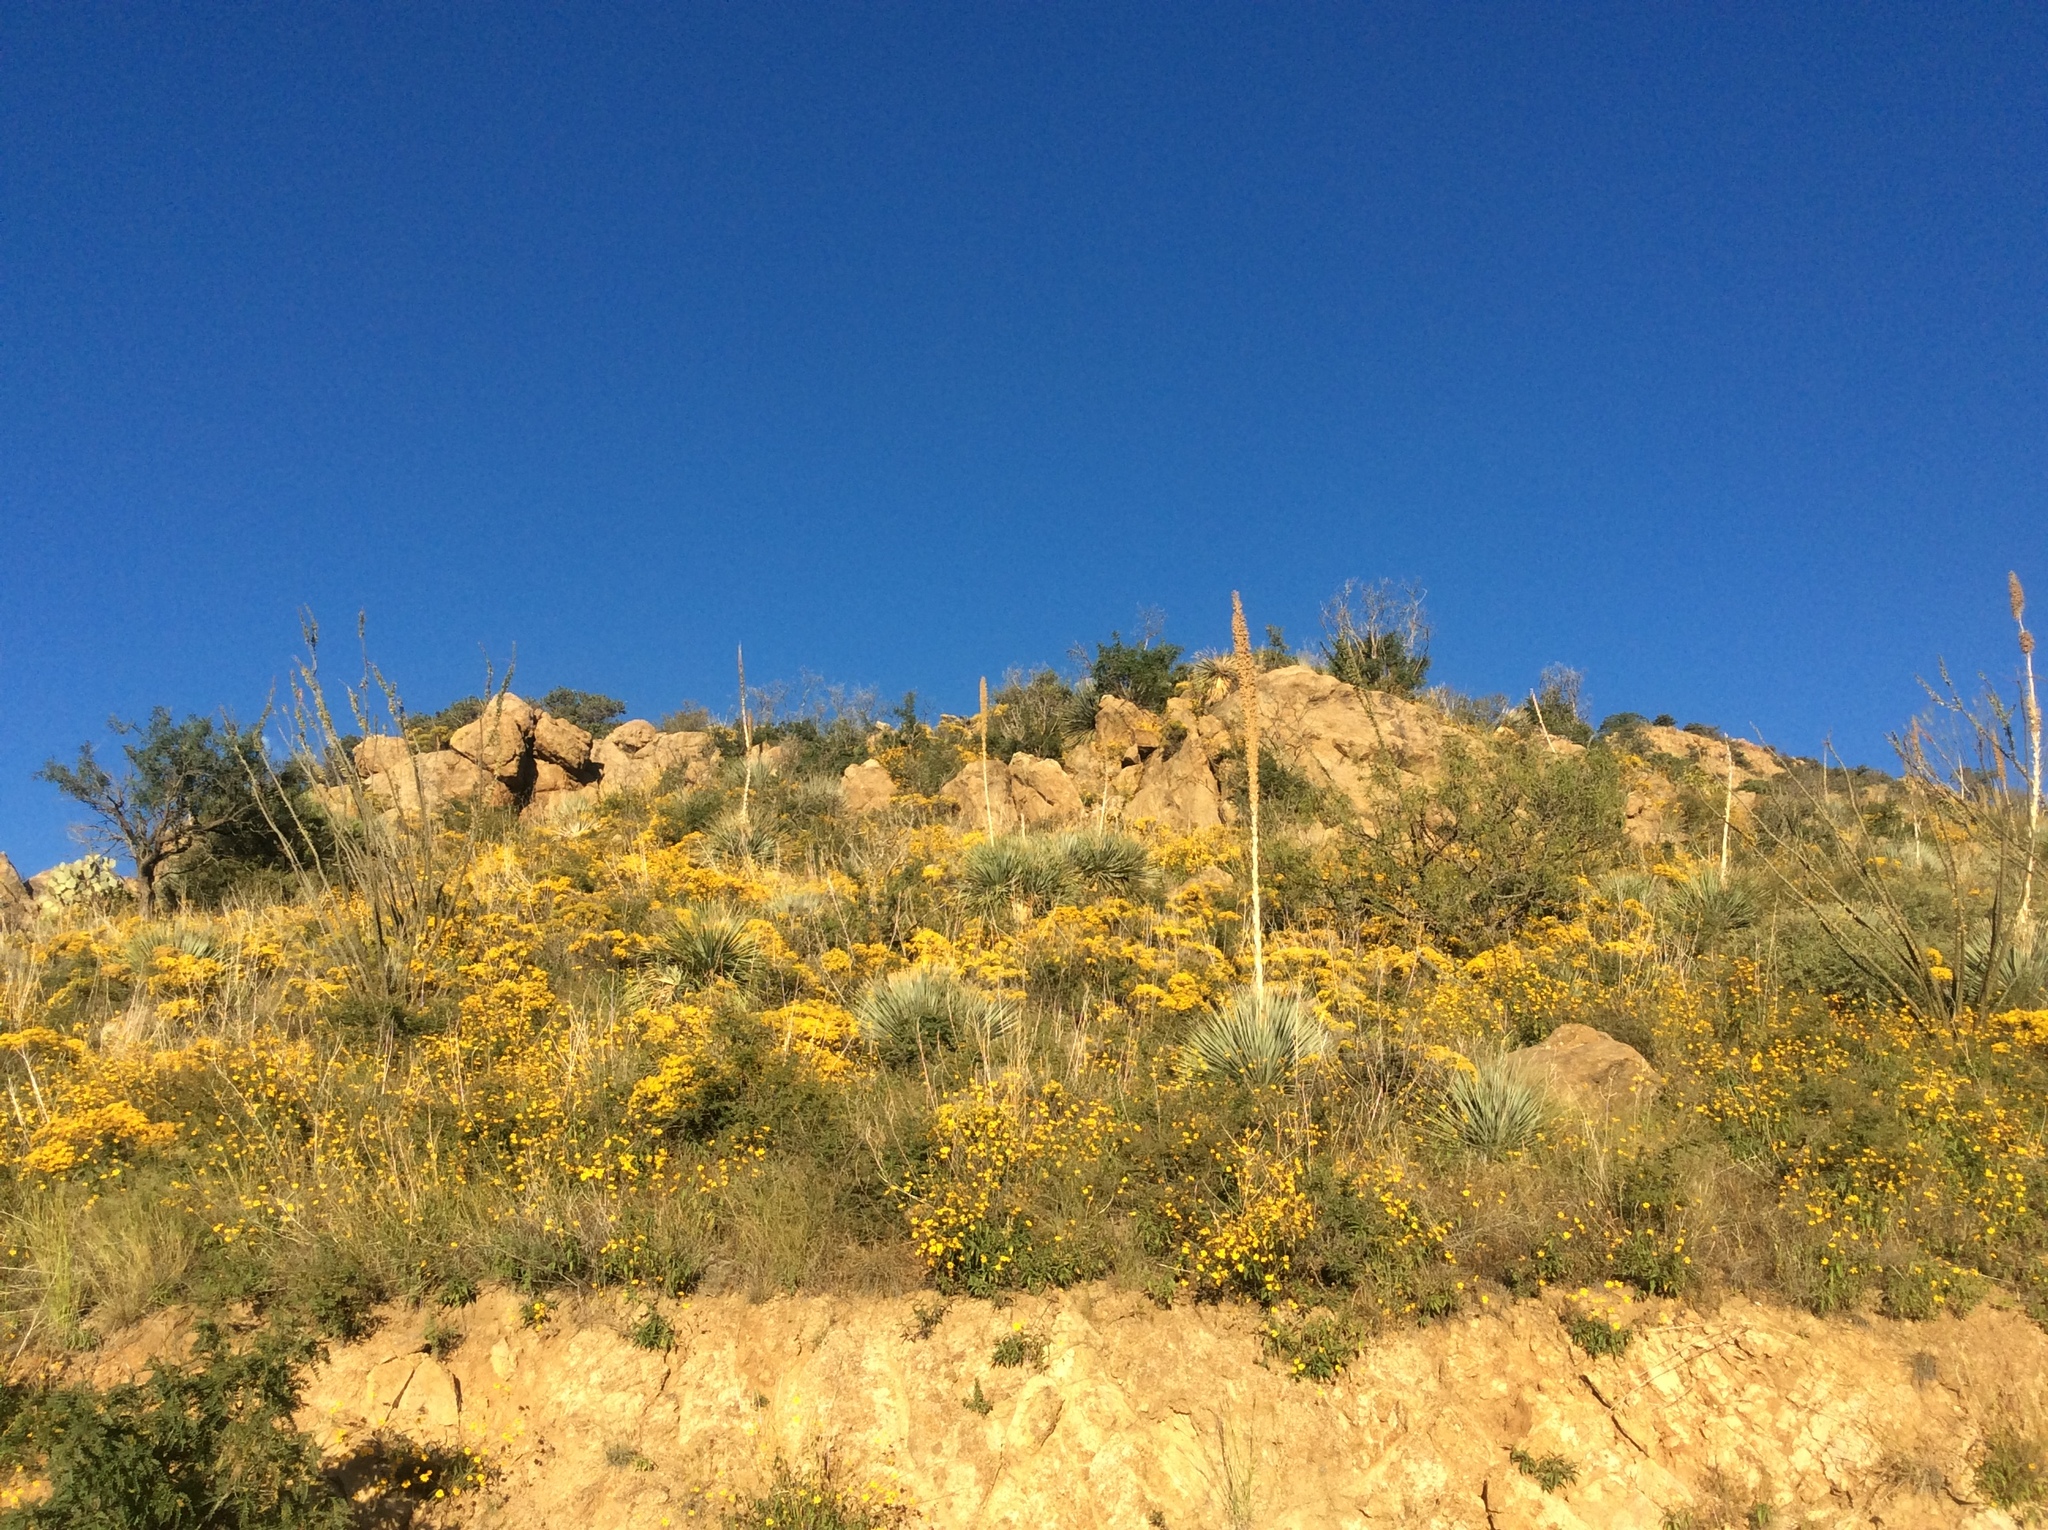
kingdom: Plantae
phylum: Tracheophyta
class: Liliopsida
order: Asparagales
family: Asparagaceae
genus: Dasylirion
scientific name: Dasylirion wheeleri
